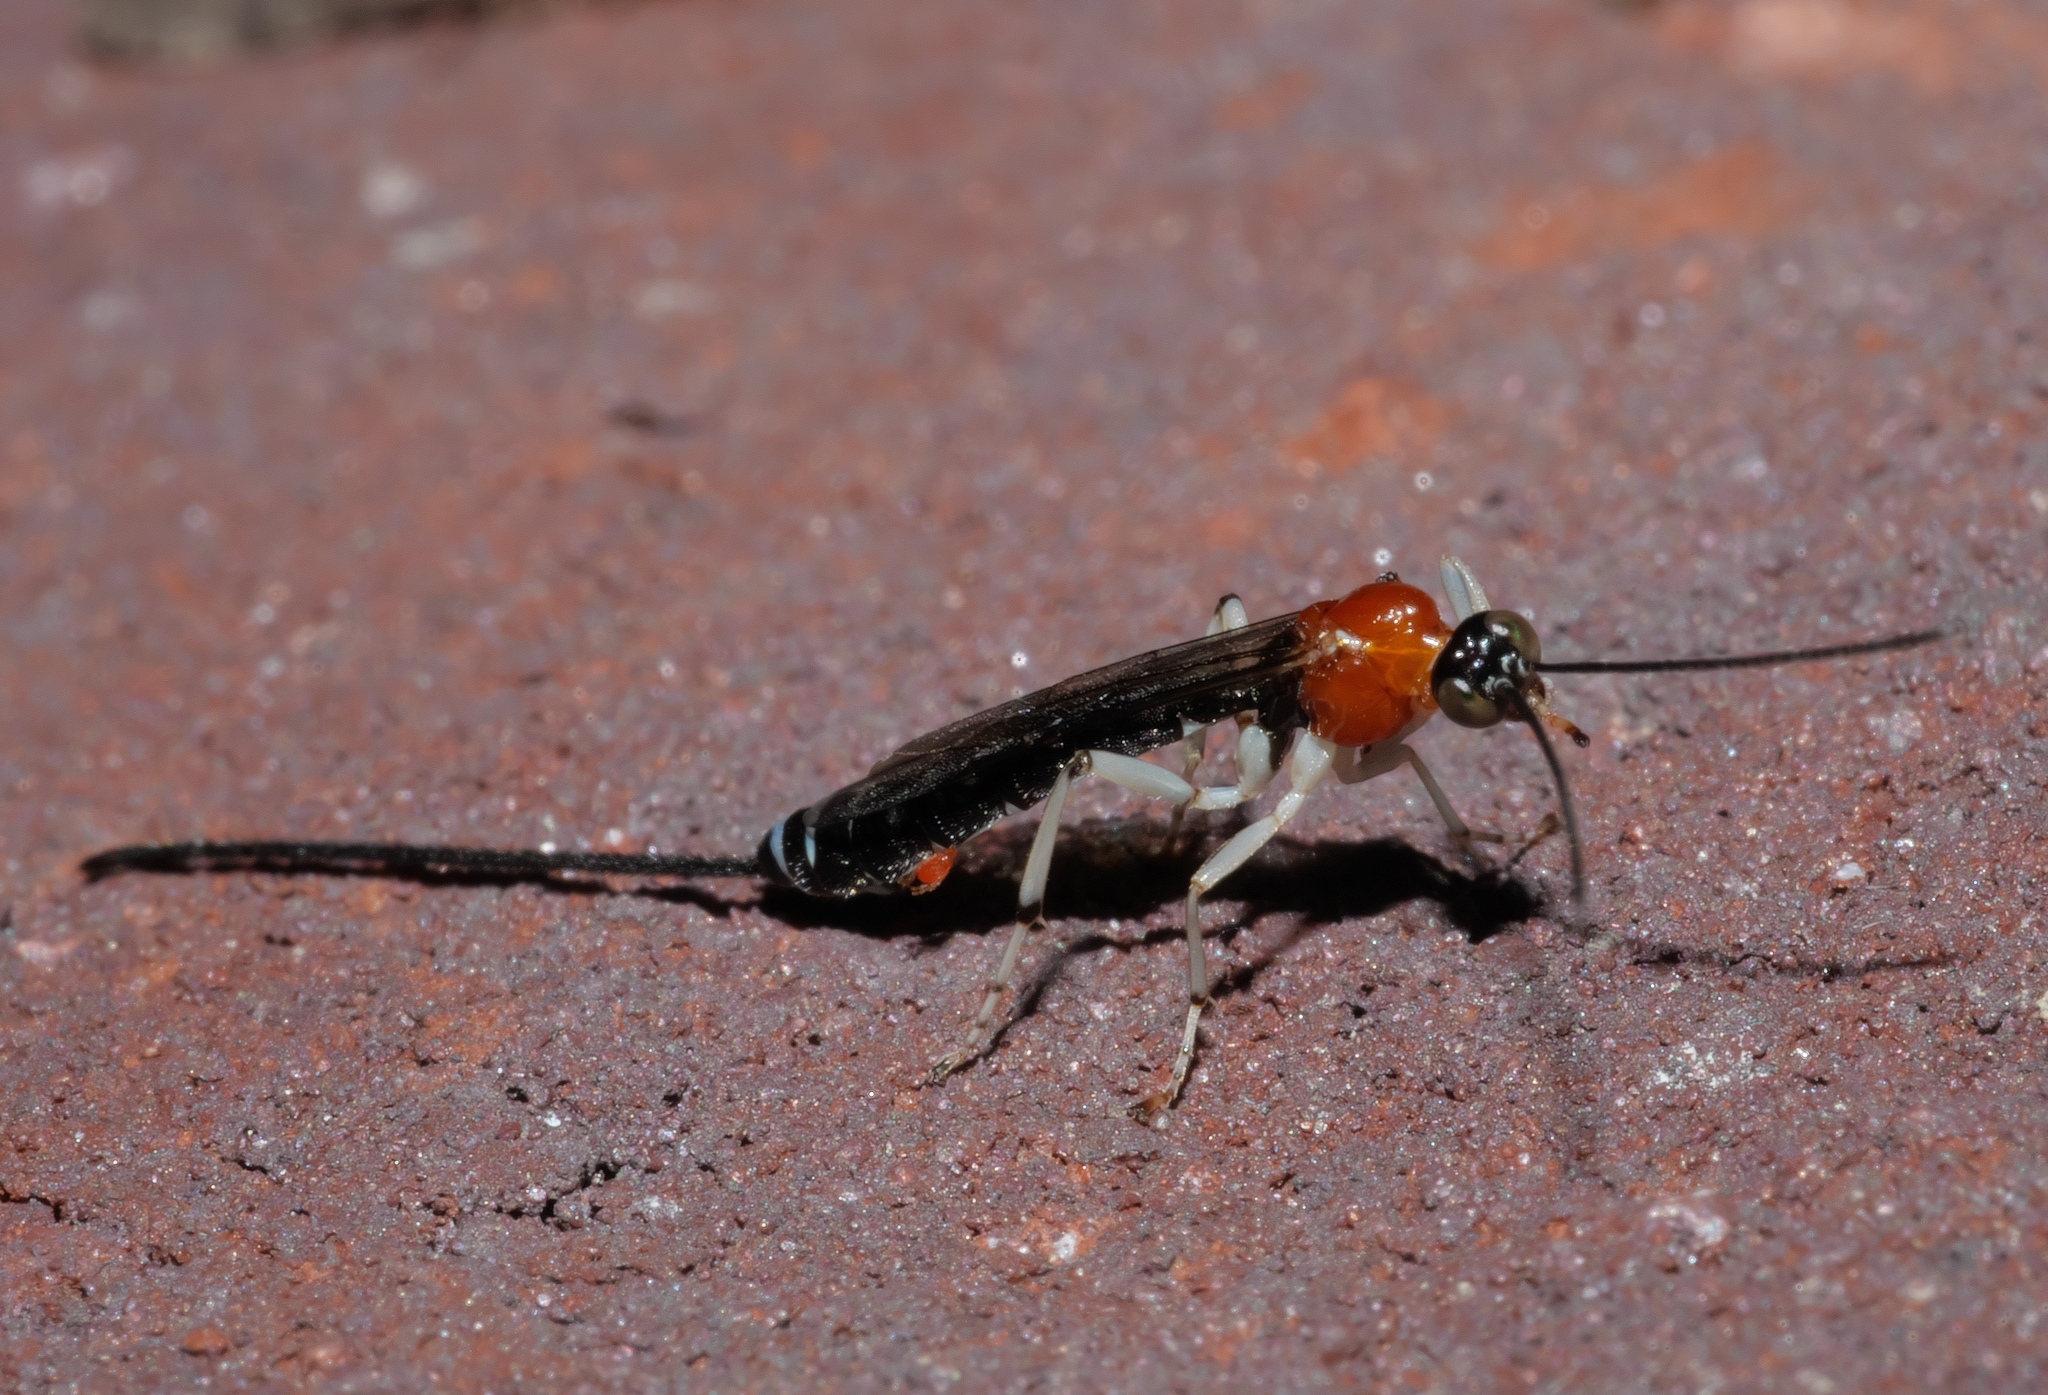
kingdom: Animalia
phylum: Arthropoda
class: Insecta
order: Hymenoptera
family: Ichneumonidae
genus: Calliephialtes
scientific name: Calliephialtes grapholithae
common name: Parasitoid wasp
